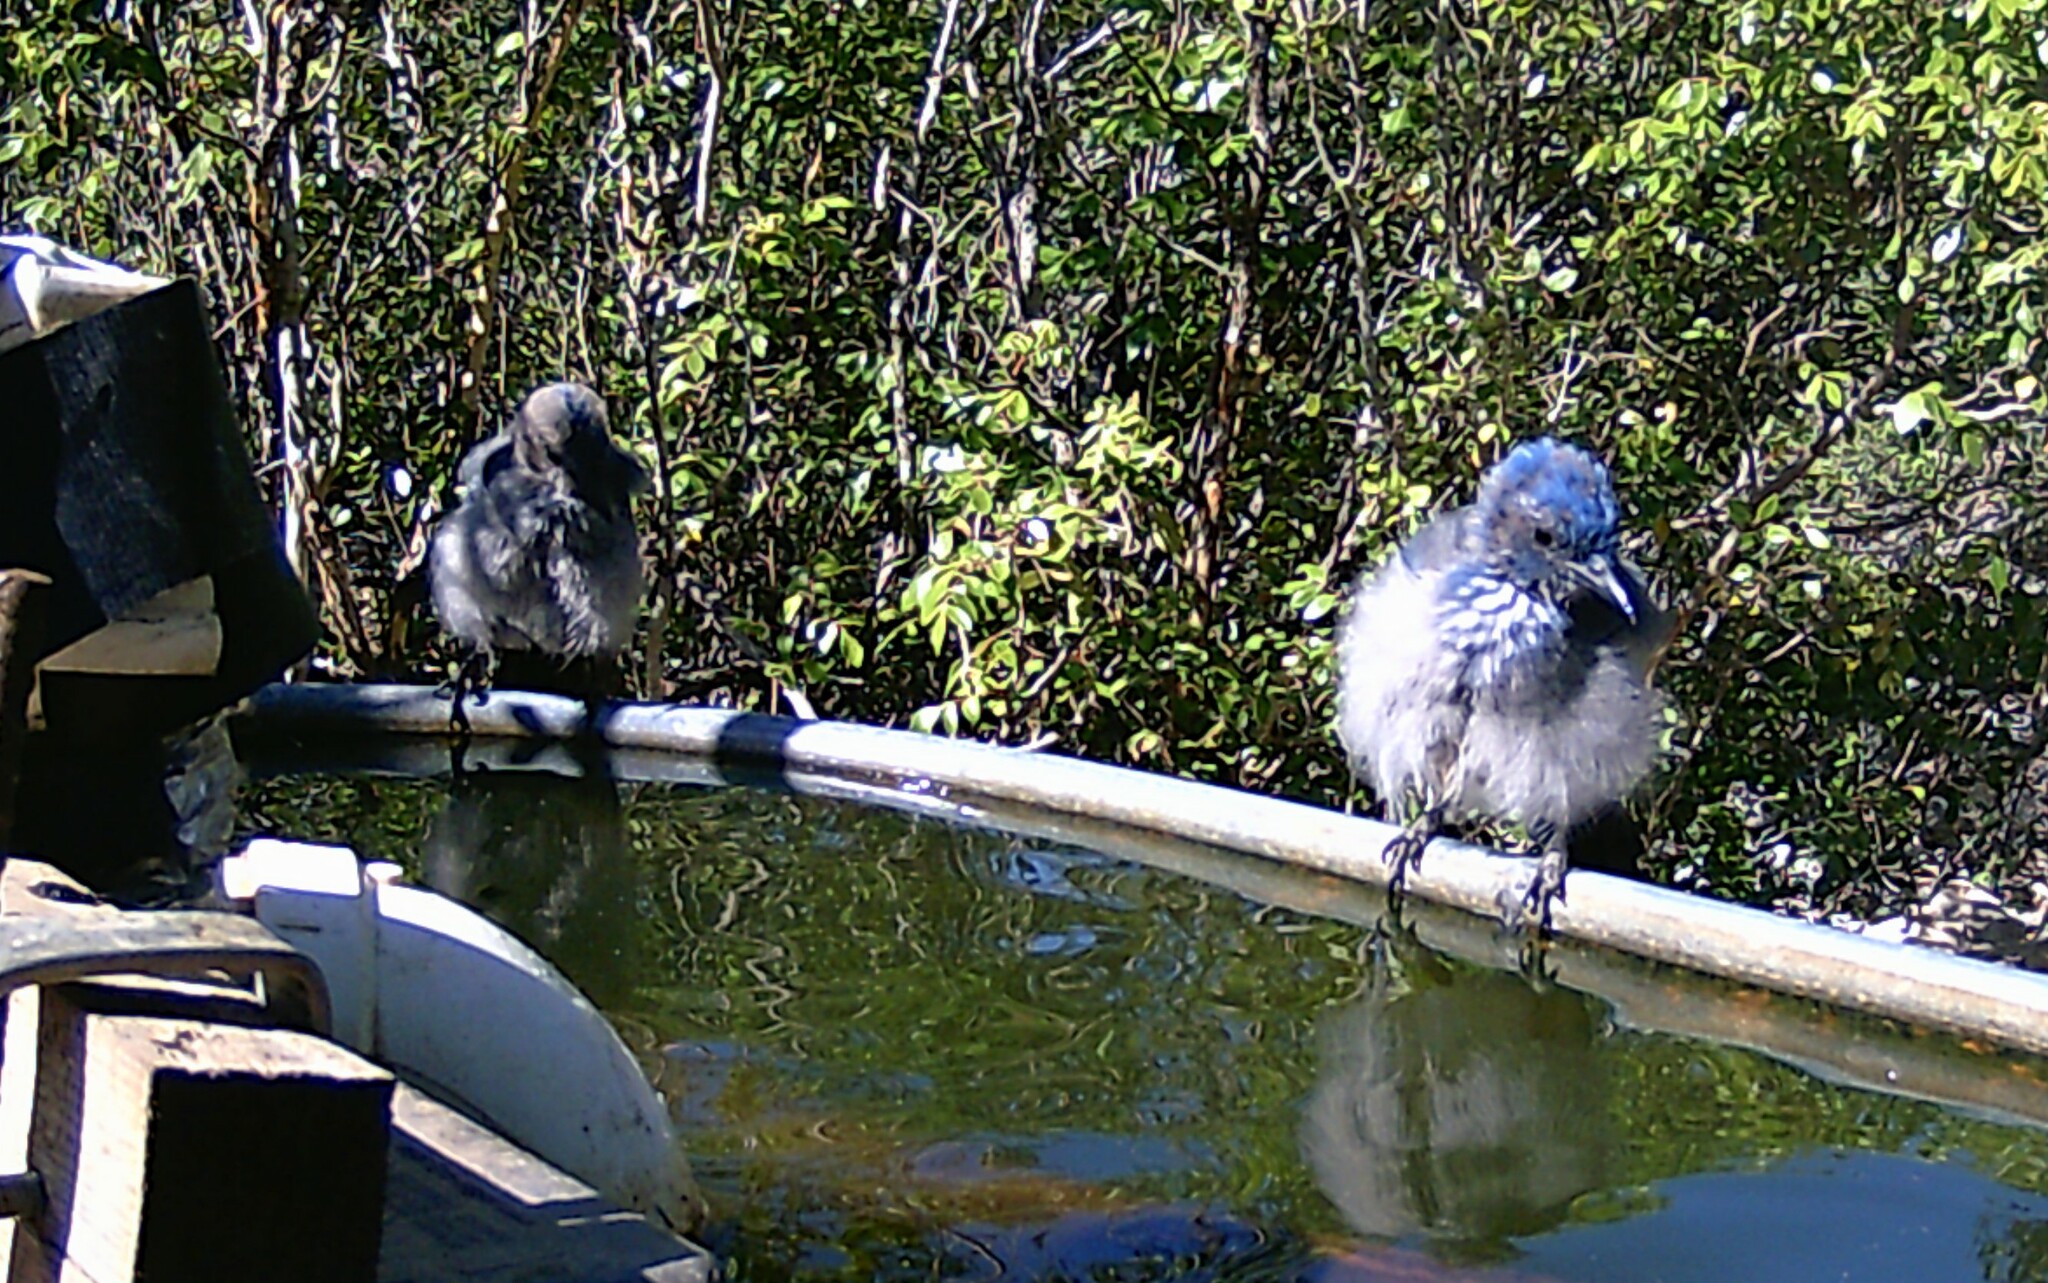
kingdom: Animalia
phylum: Chordata
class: Aves
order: Passeriformes
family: Corvidae
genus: Aphelocoma
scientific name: Aphelocoma woodhouseii
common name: Woodhouse's scrub-jay
